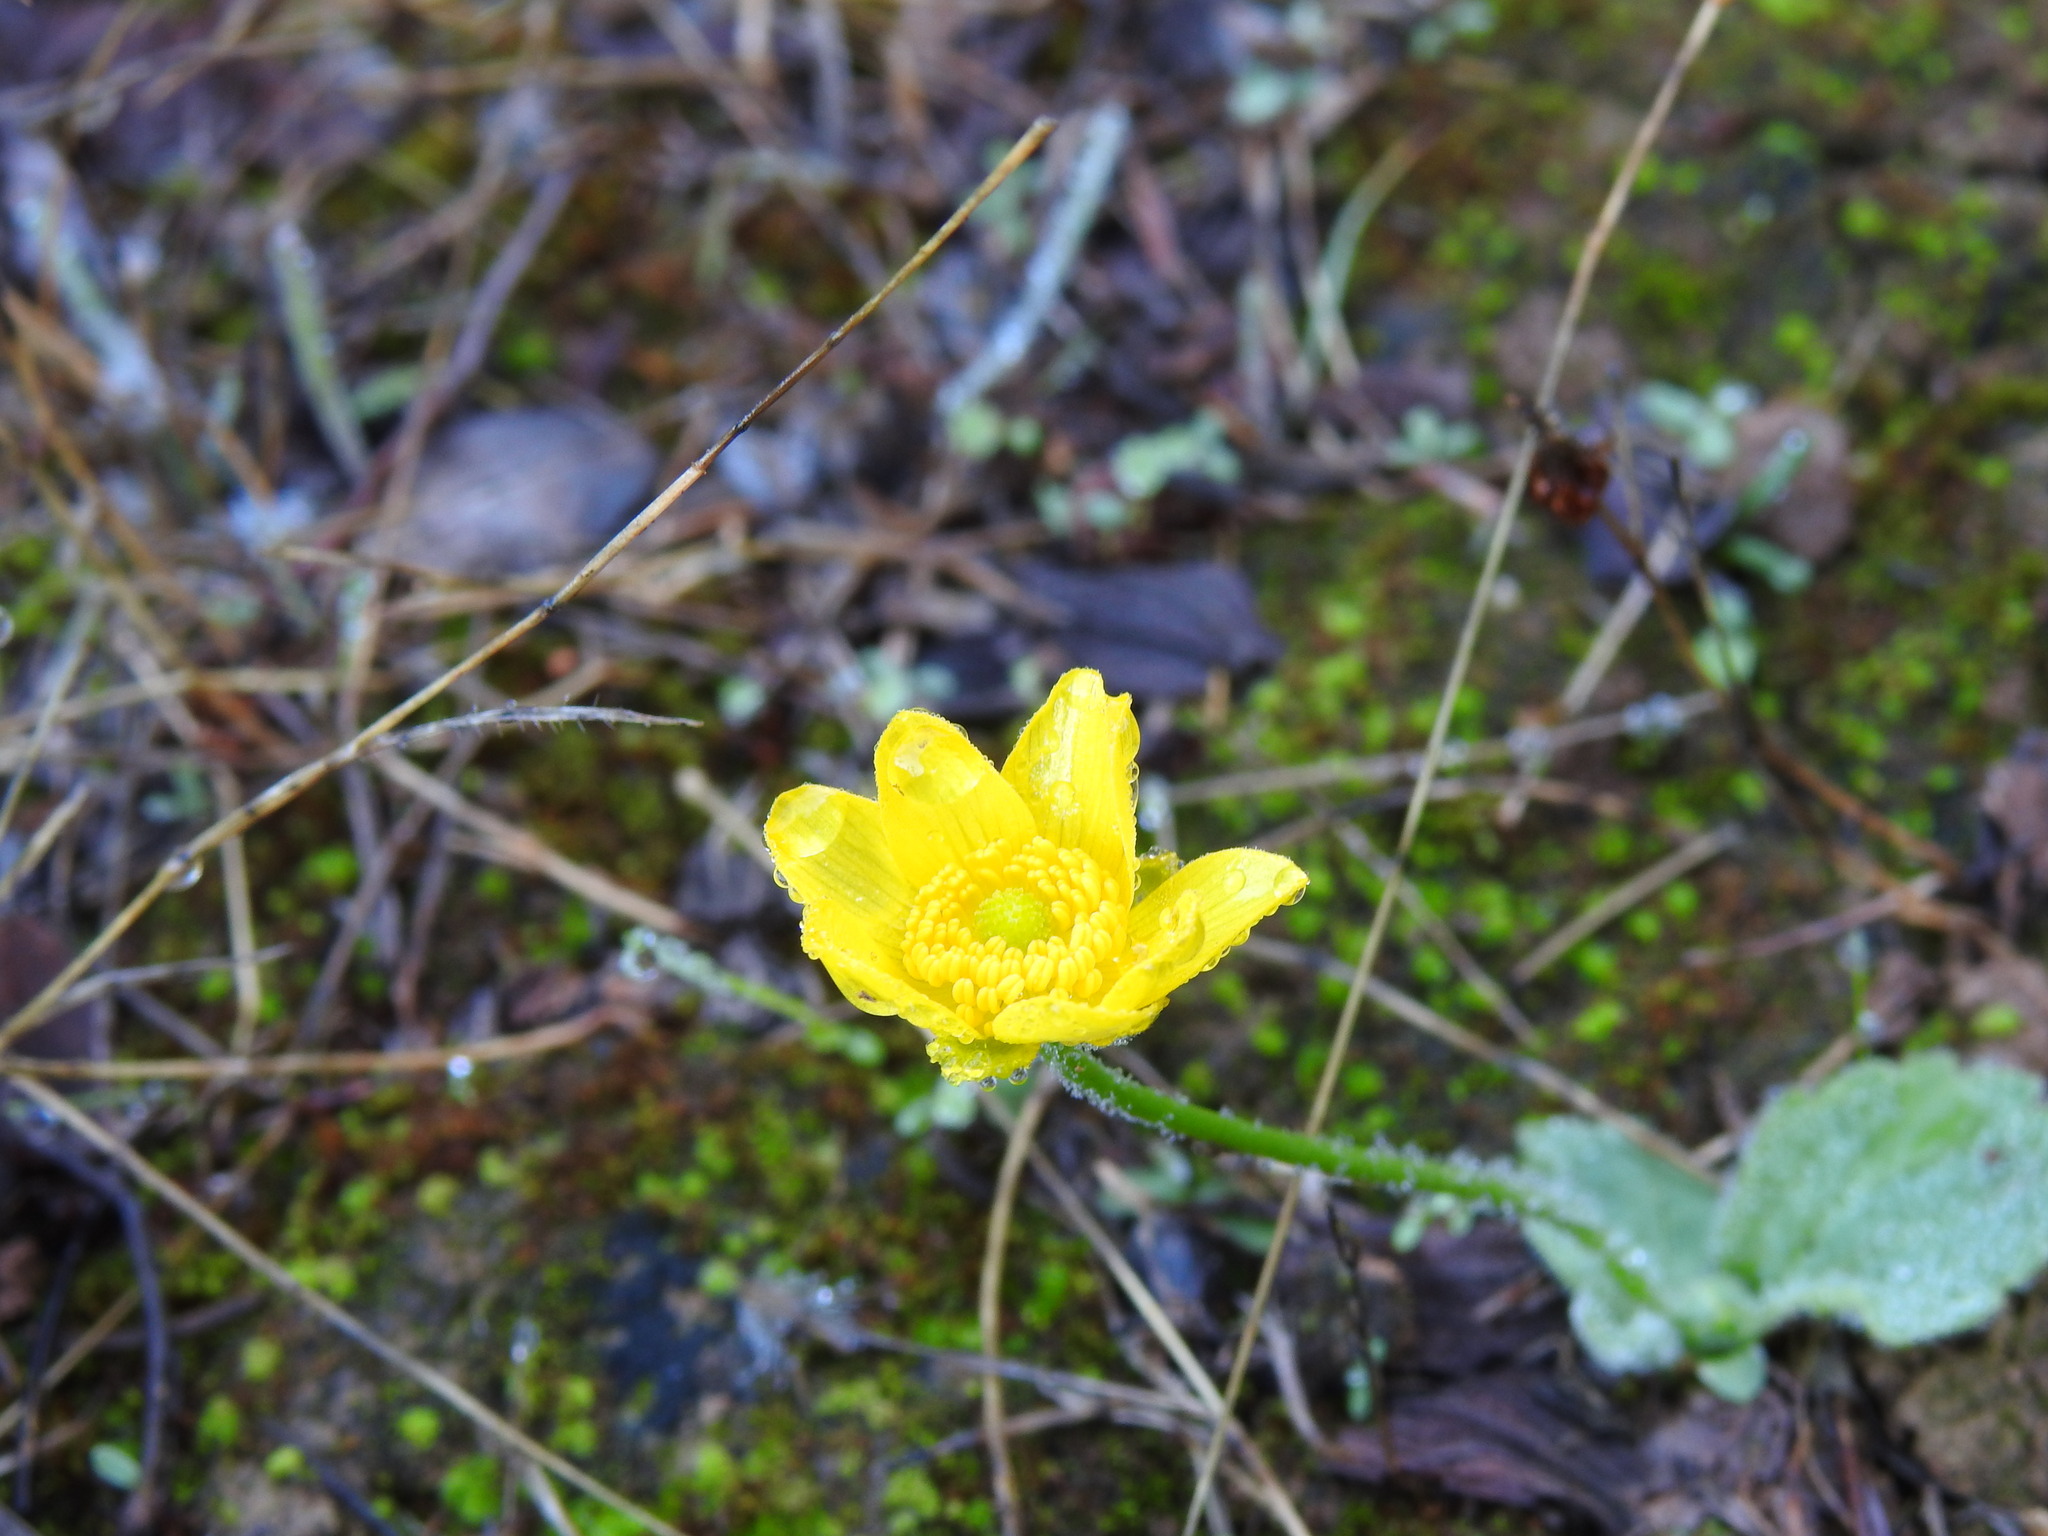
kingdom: Plantae
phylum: Tracheophyta
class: Magnoliopsida
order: Ranunculales
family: Ranunculaceae
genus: Ranunculus
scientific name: Ranunculus bullatus
